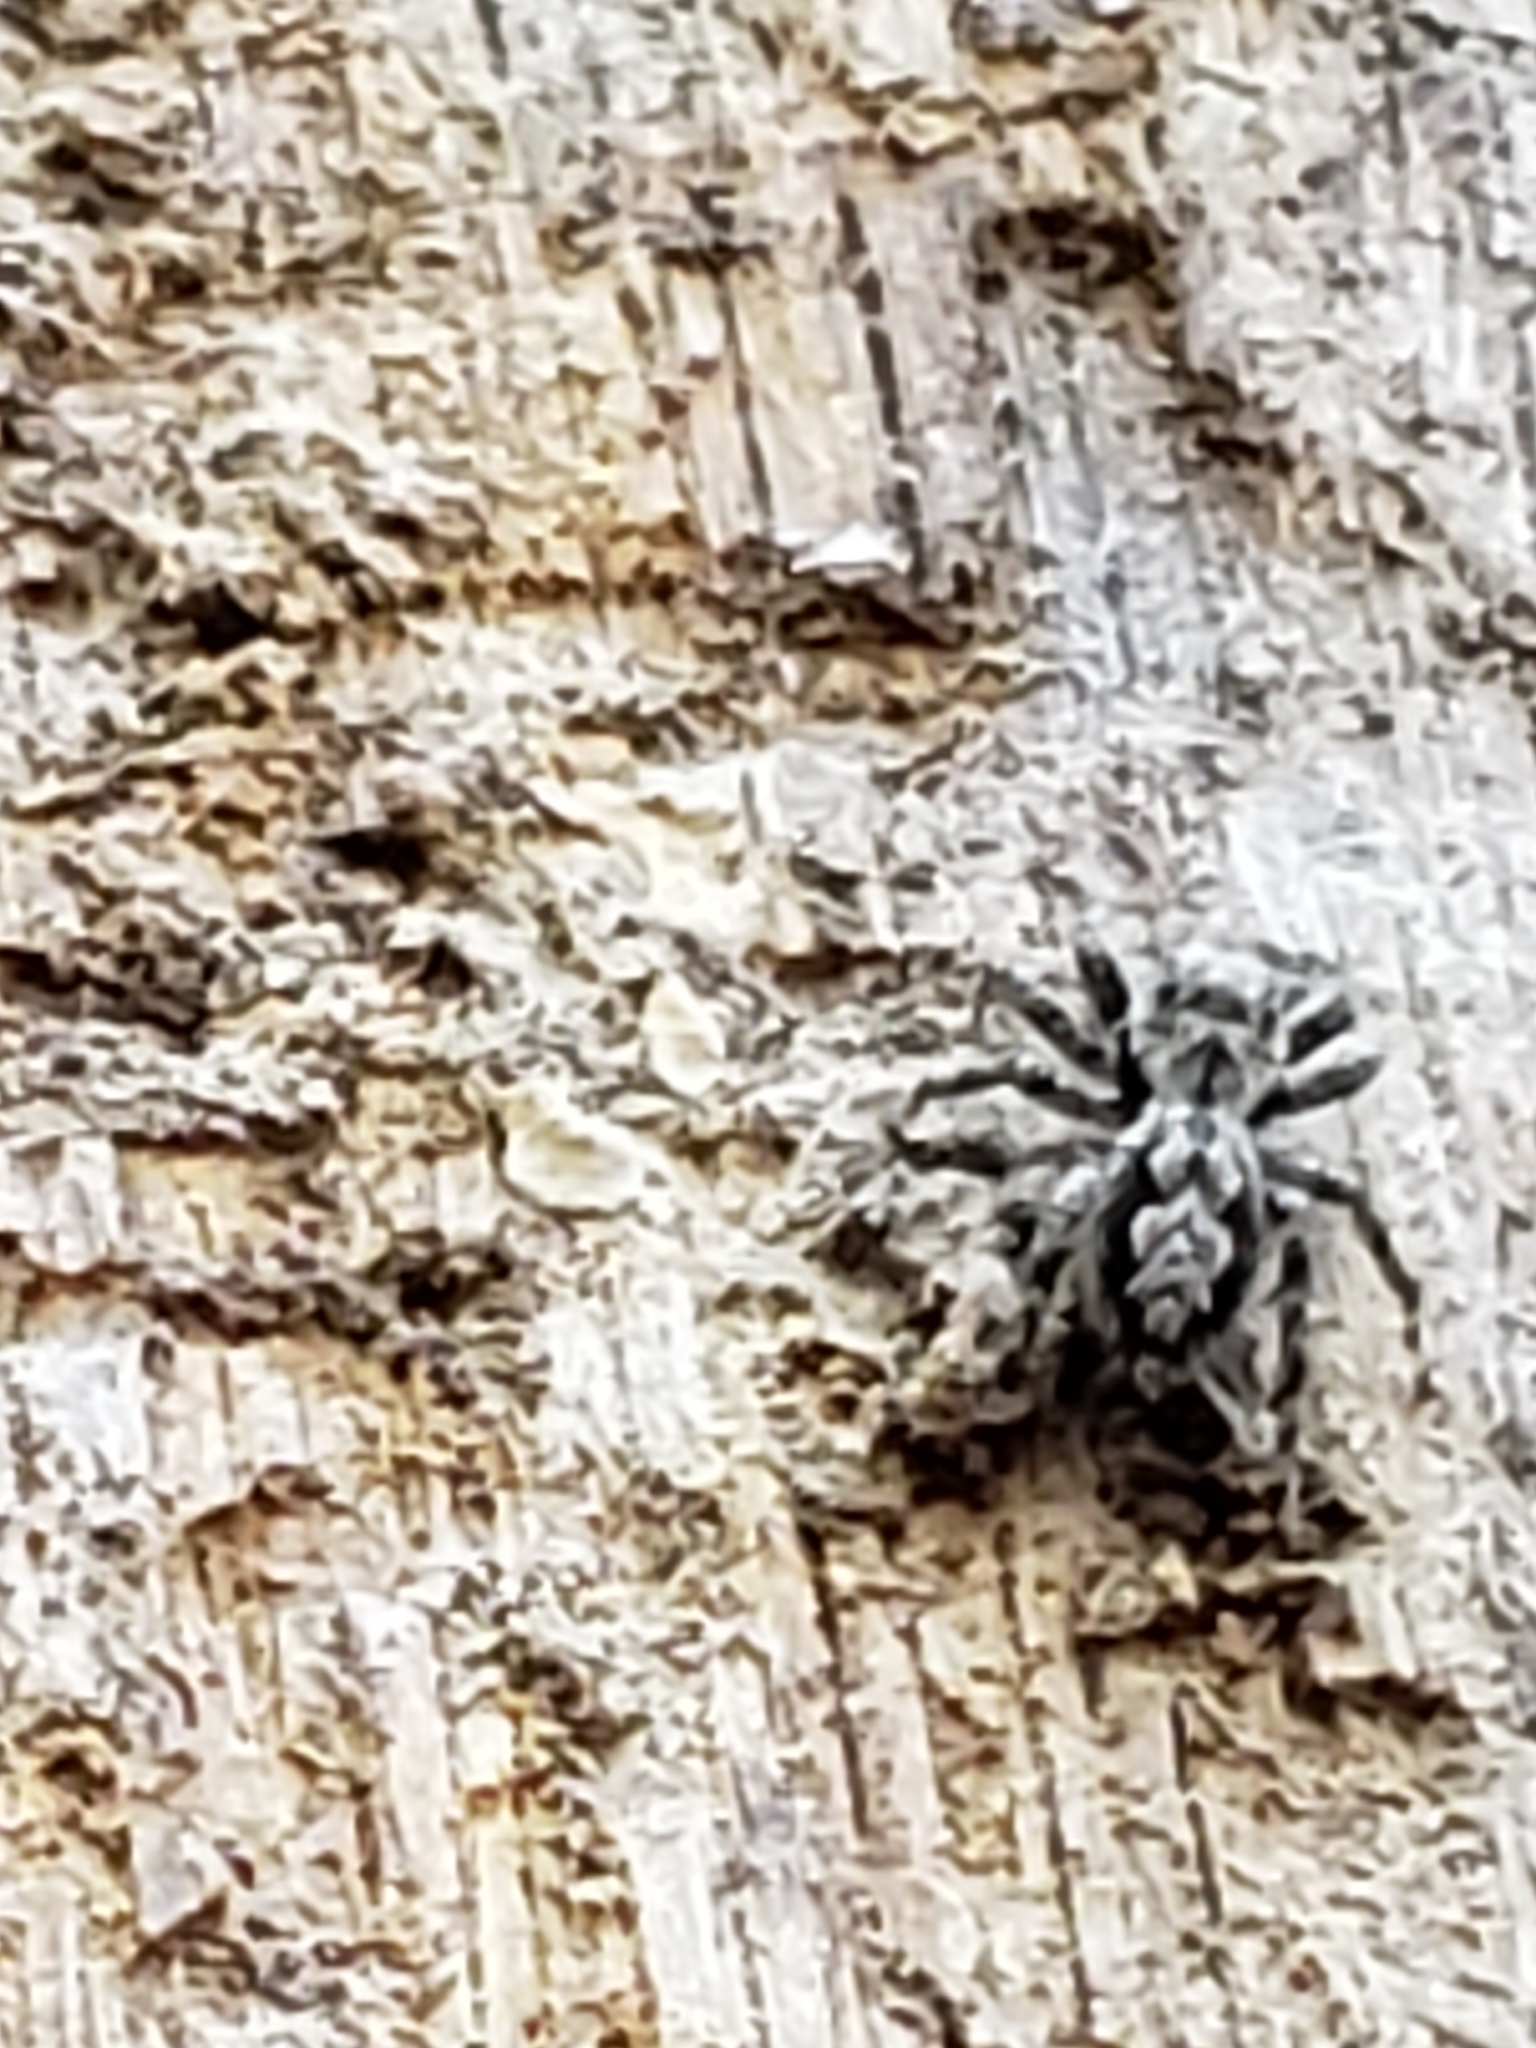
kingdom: Animalia
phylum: Arthropoda
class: Arachnida
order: Araneae
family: Salticidae
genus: Platycryptus
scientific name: Platycryptus undatus
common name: Tan jumping spider
